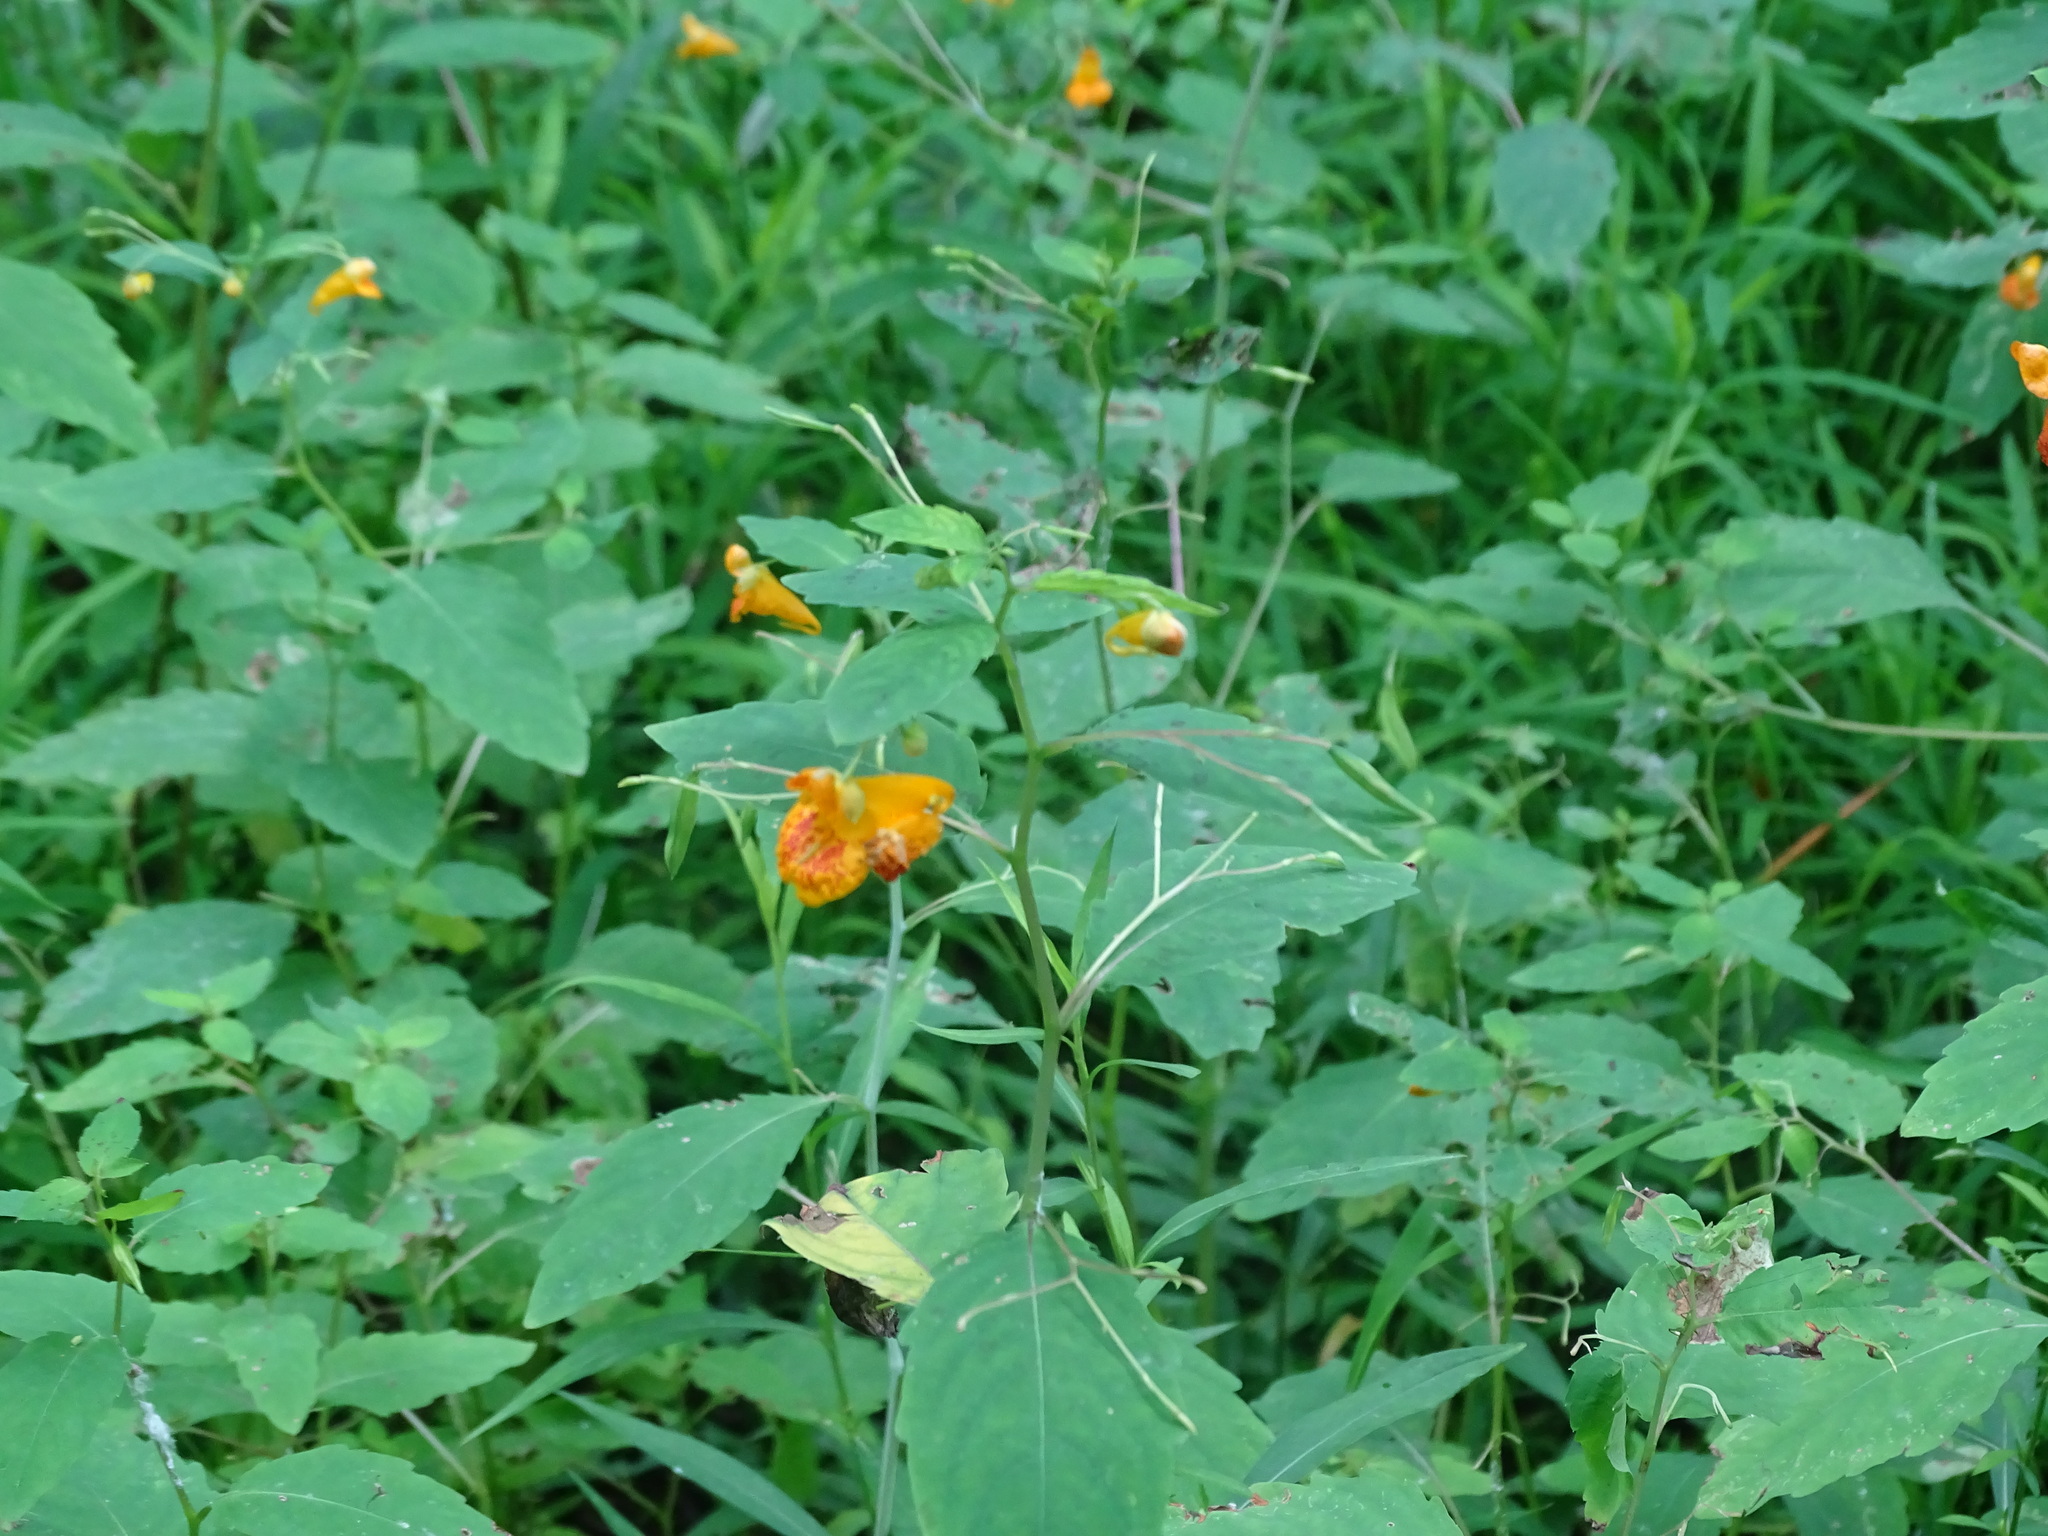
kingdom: Plantae
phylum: Tracheophyta
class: Magnoliopsida
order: Ericales
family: Balsaminaceae
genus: Impatiens
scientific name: Impatiens capensis
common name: Orange balsam
